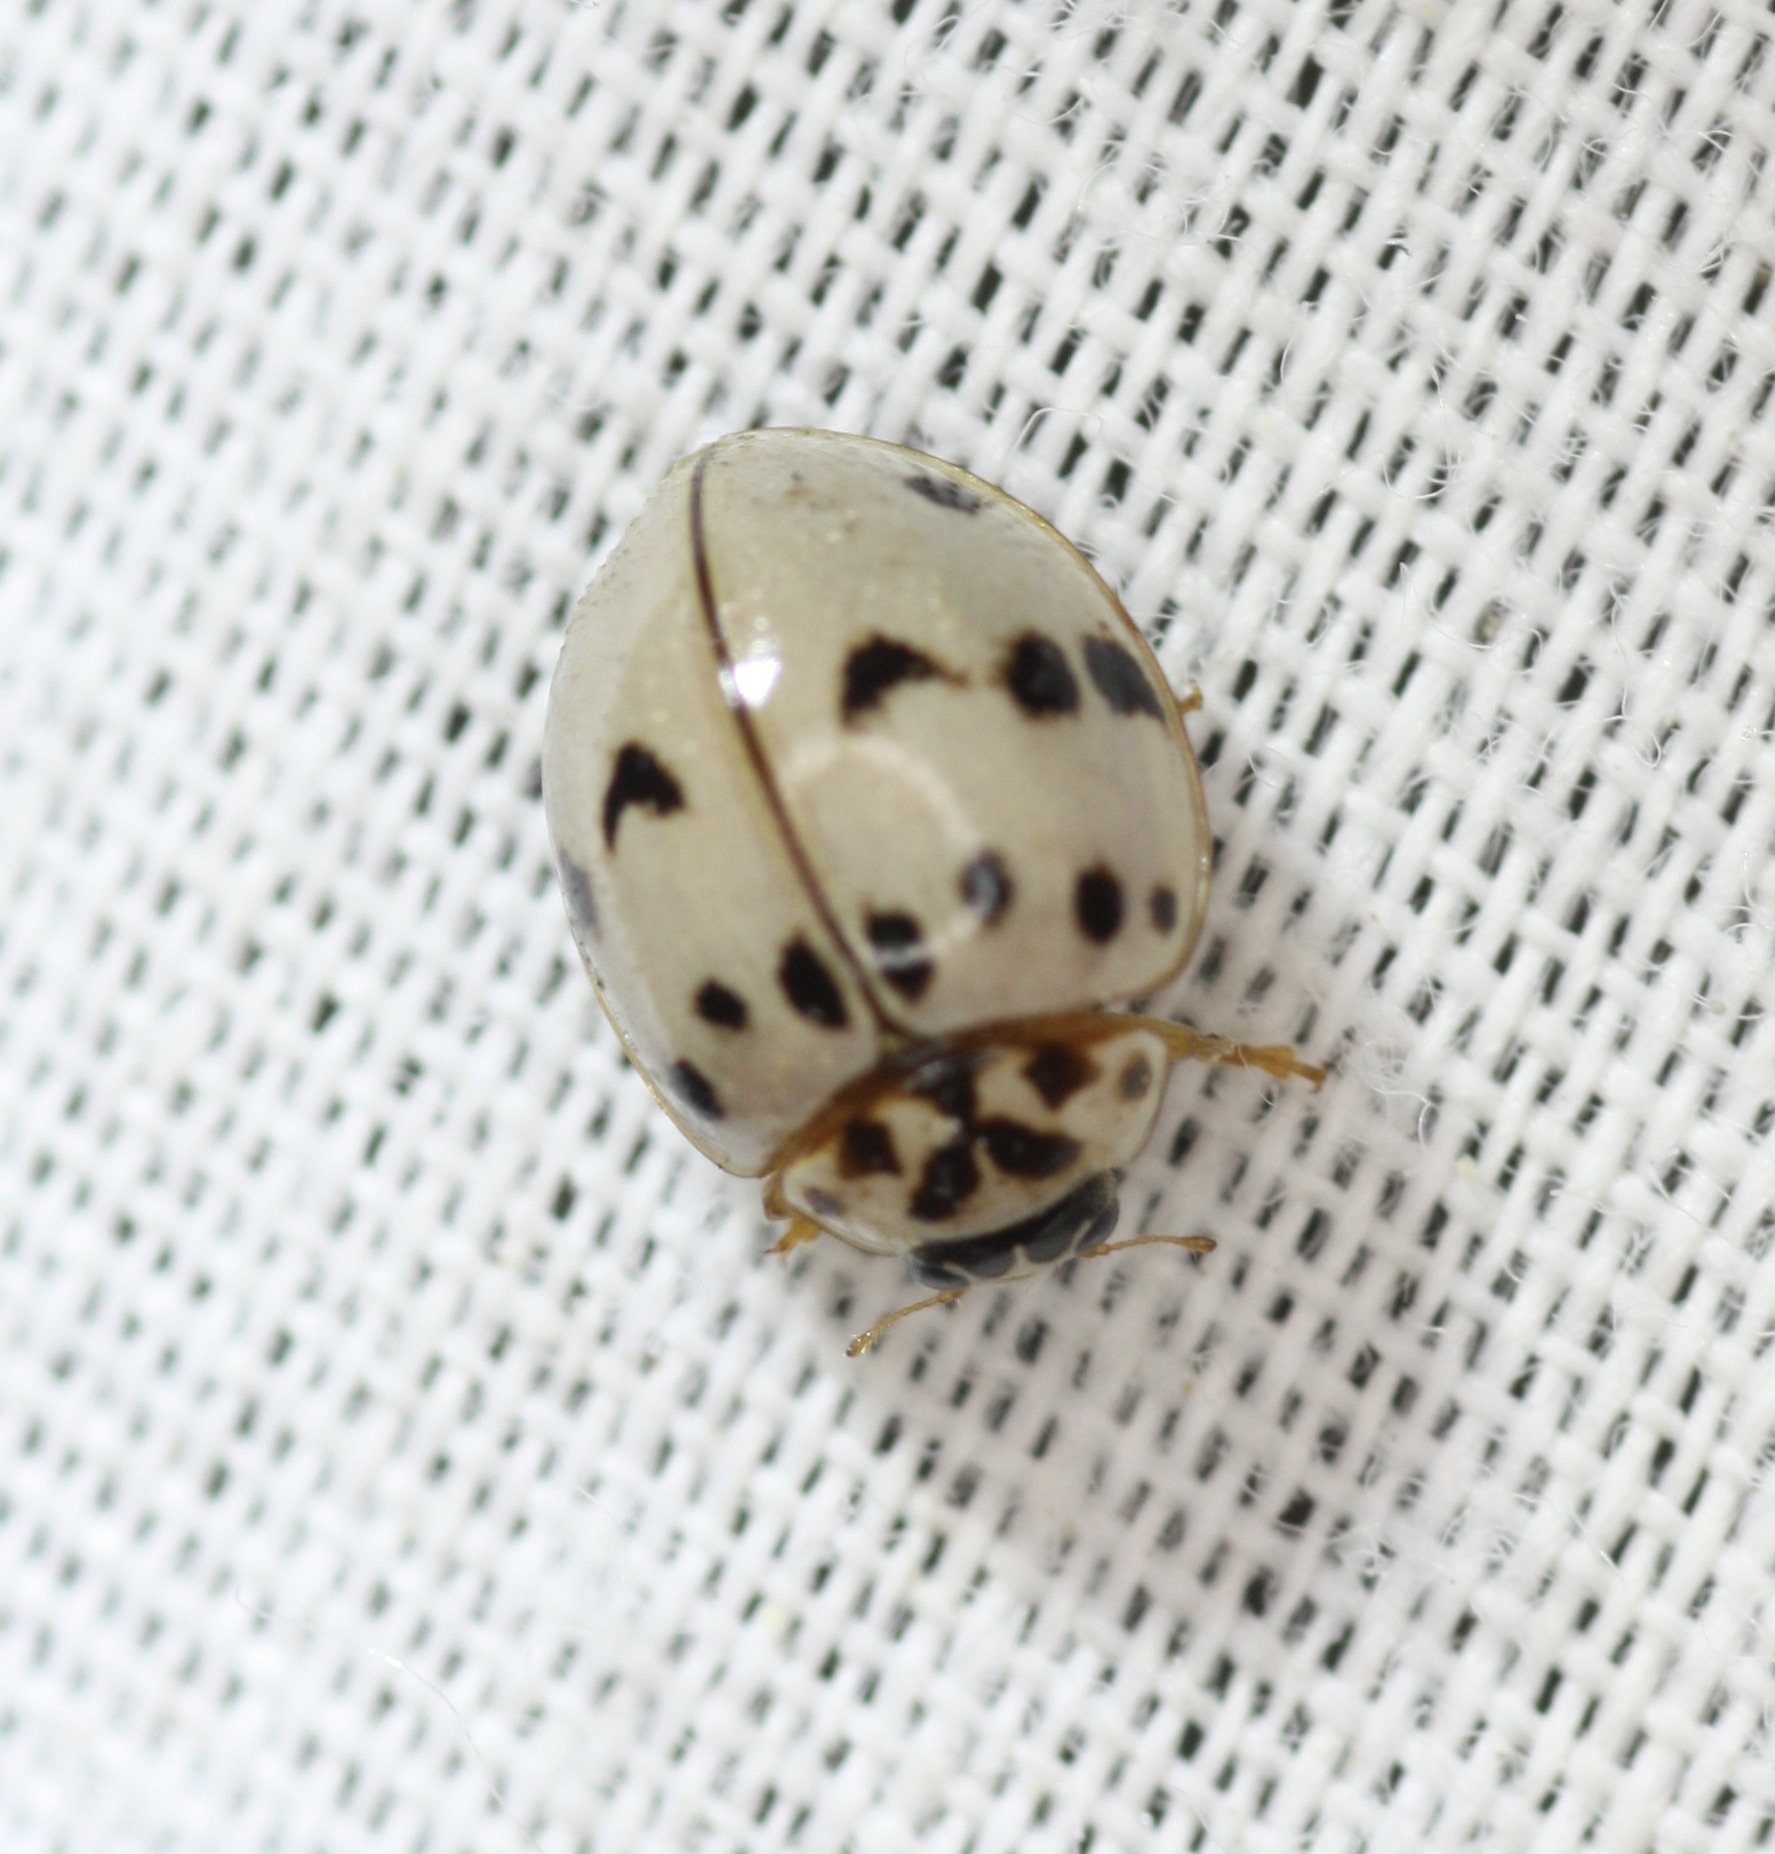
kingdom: Animalia
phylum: Arthropoda
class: Insecta
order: Coleoptera
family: Coccinellidae
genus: Olla
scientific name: Olla v-nigrum
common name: Ashy gray lady beetle
